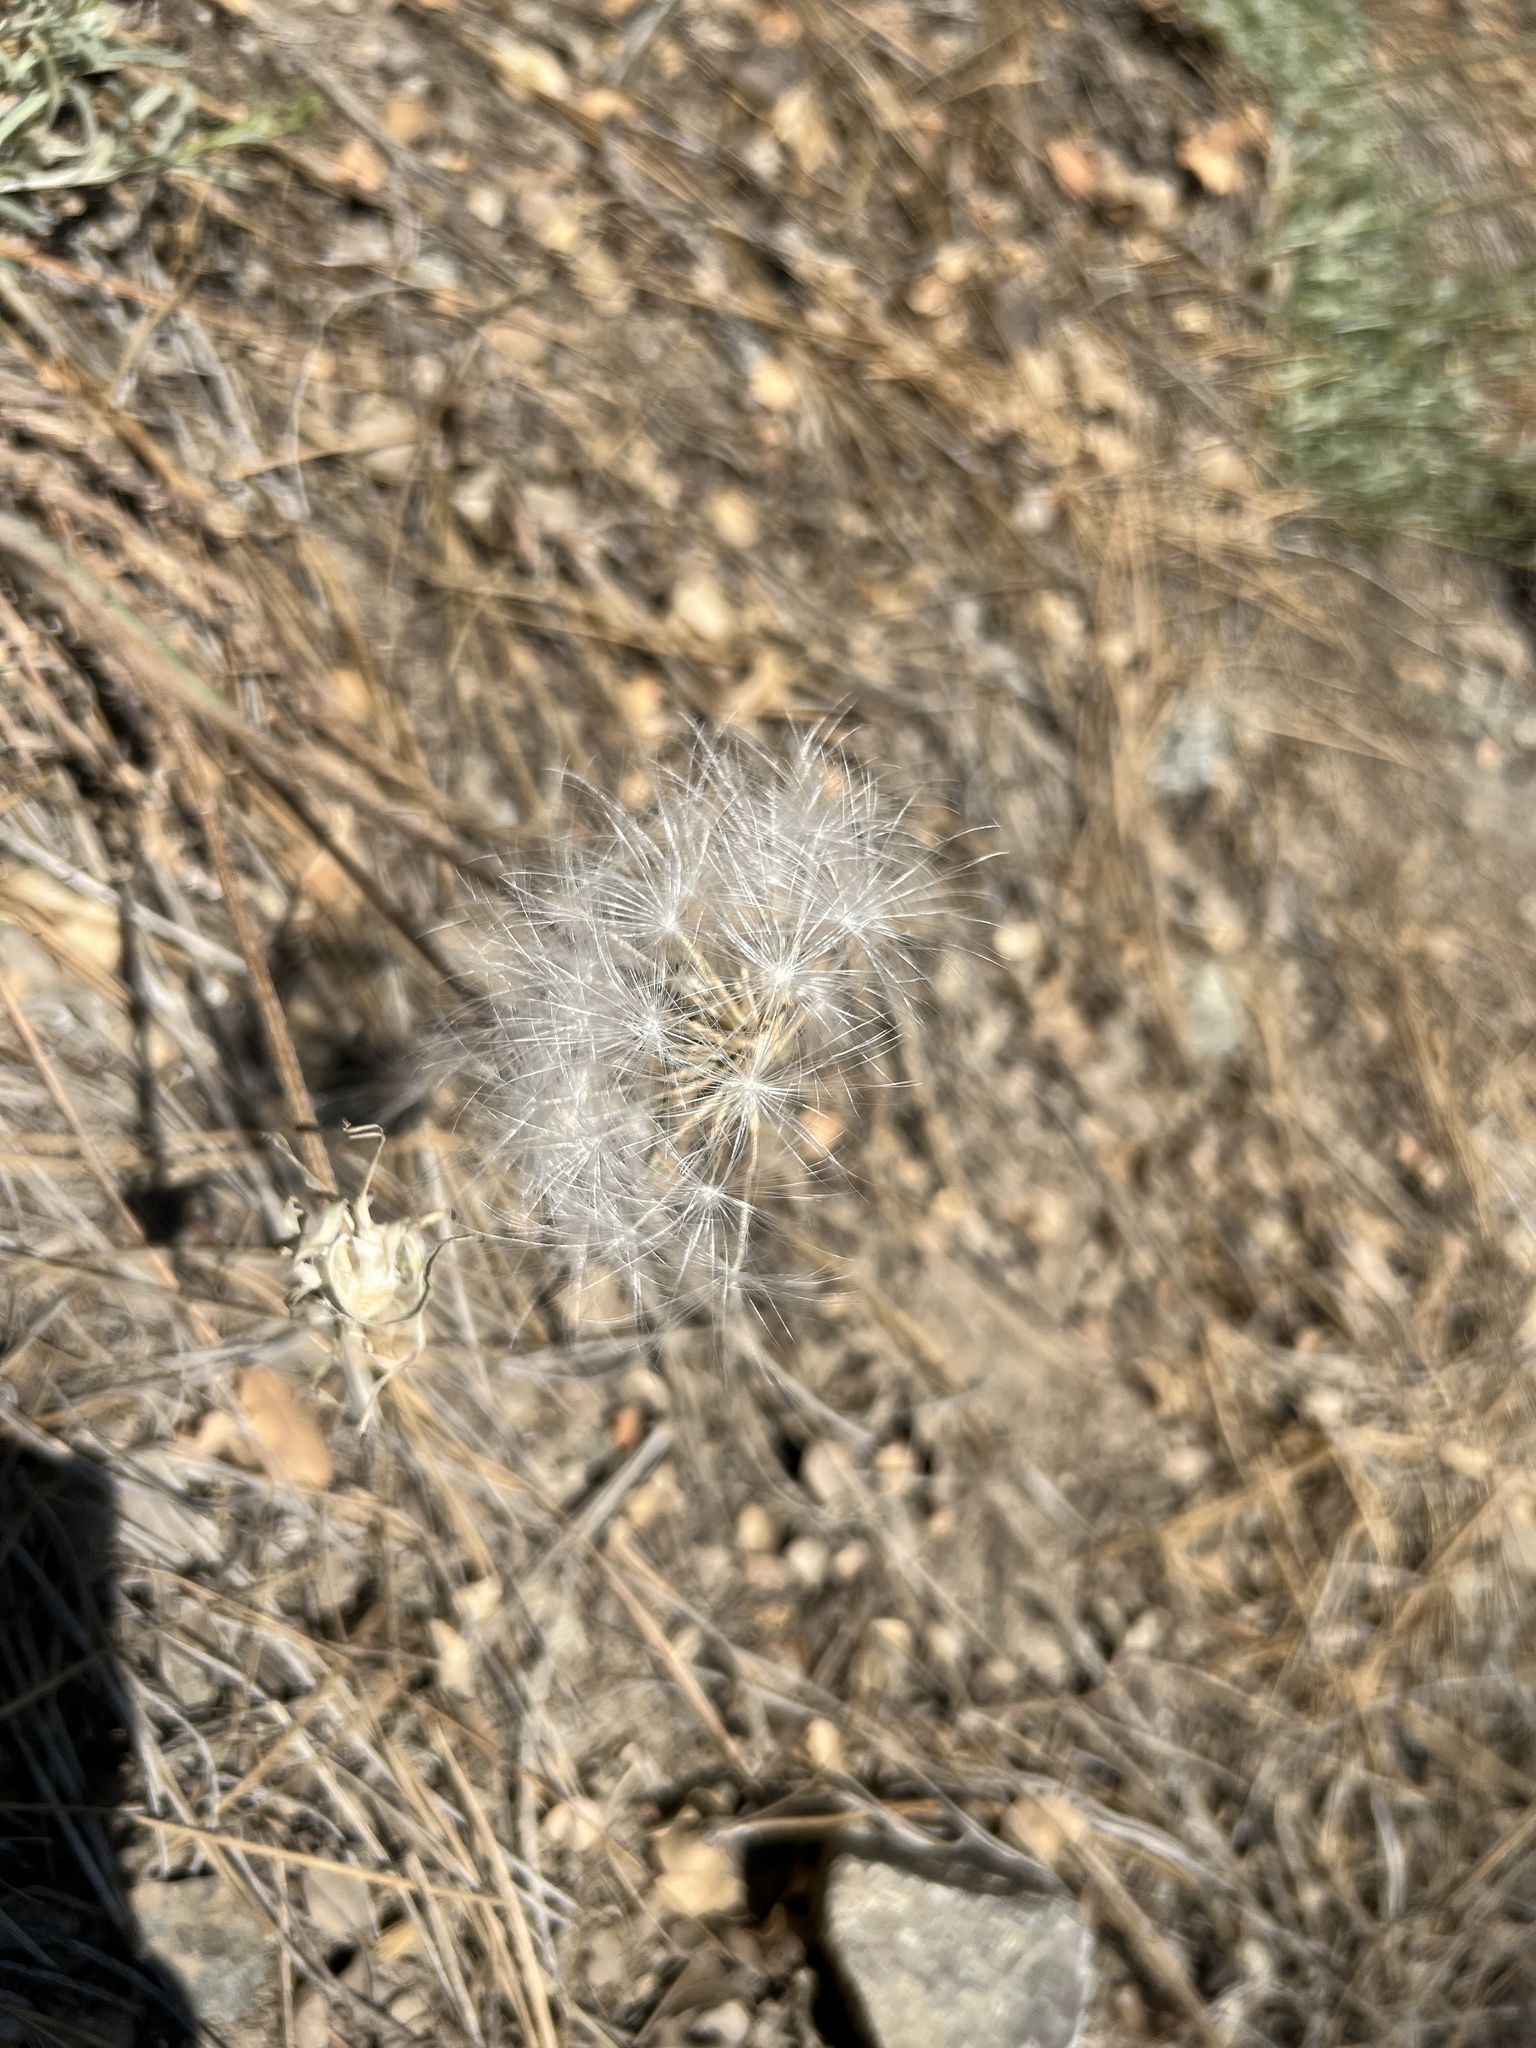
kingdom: Plantae
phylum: Tracheophyta
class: Magnoliopsida
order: Asterales
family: Asteraceae
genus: Agoseris
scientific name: Agoseris retrorsa
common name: Spearleaf agoseris
